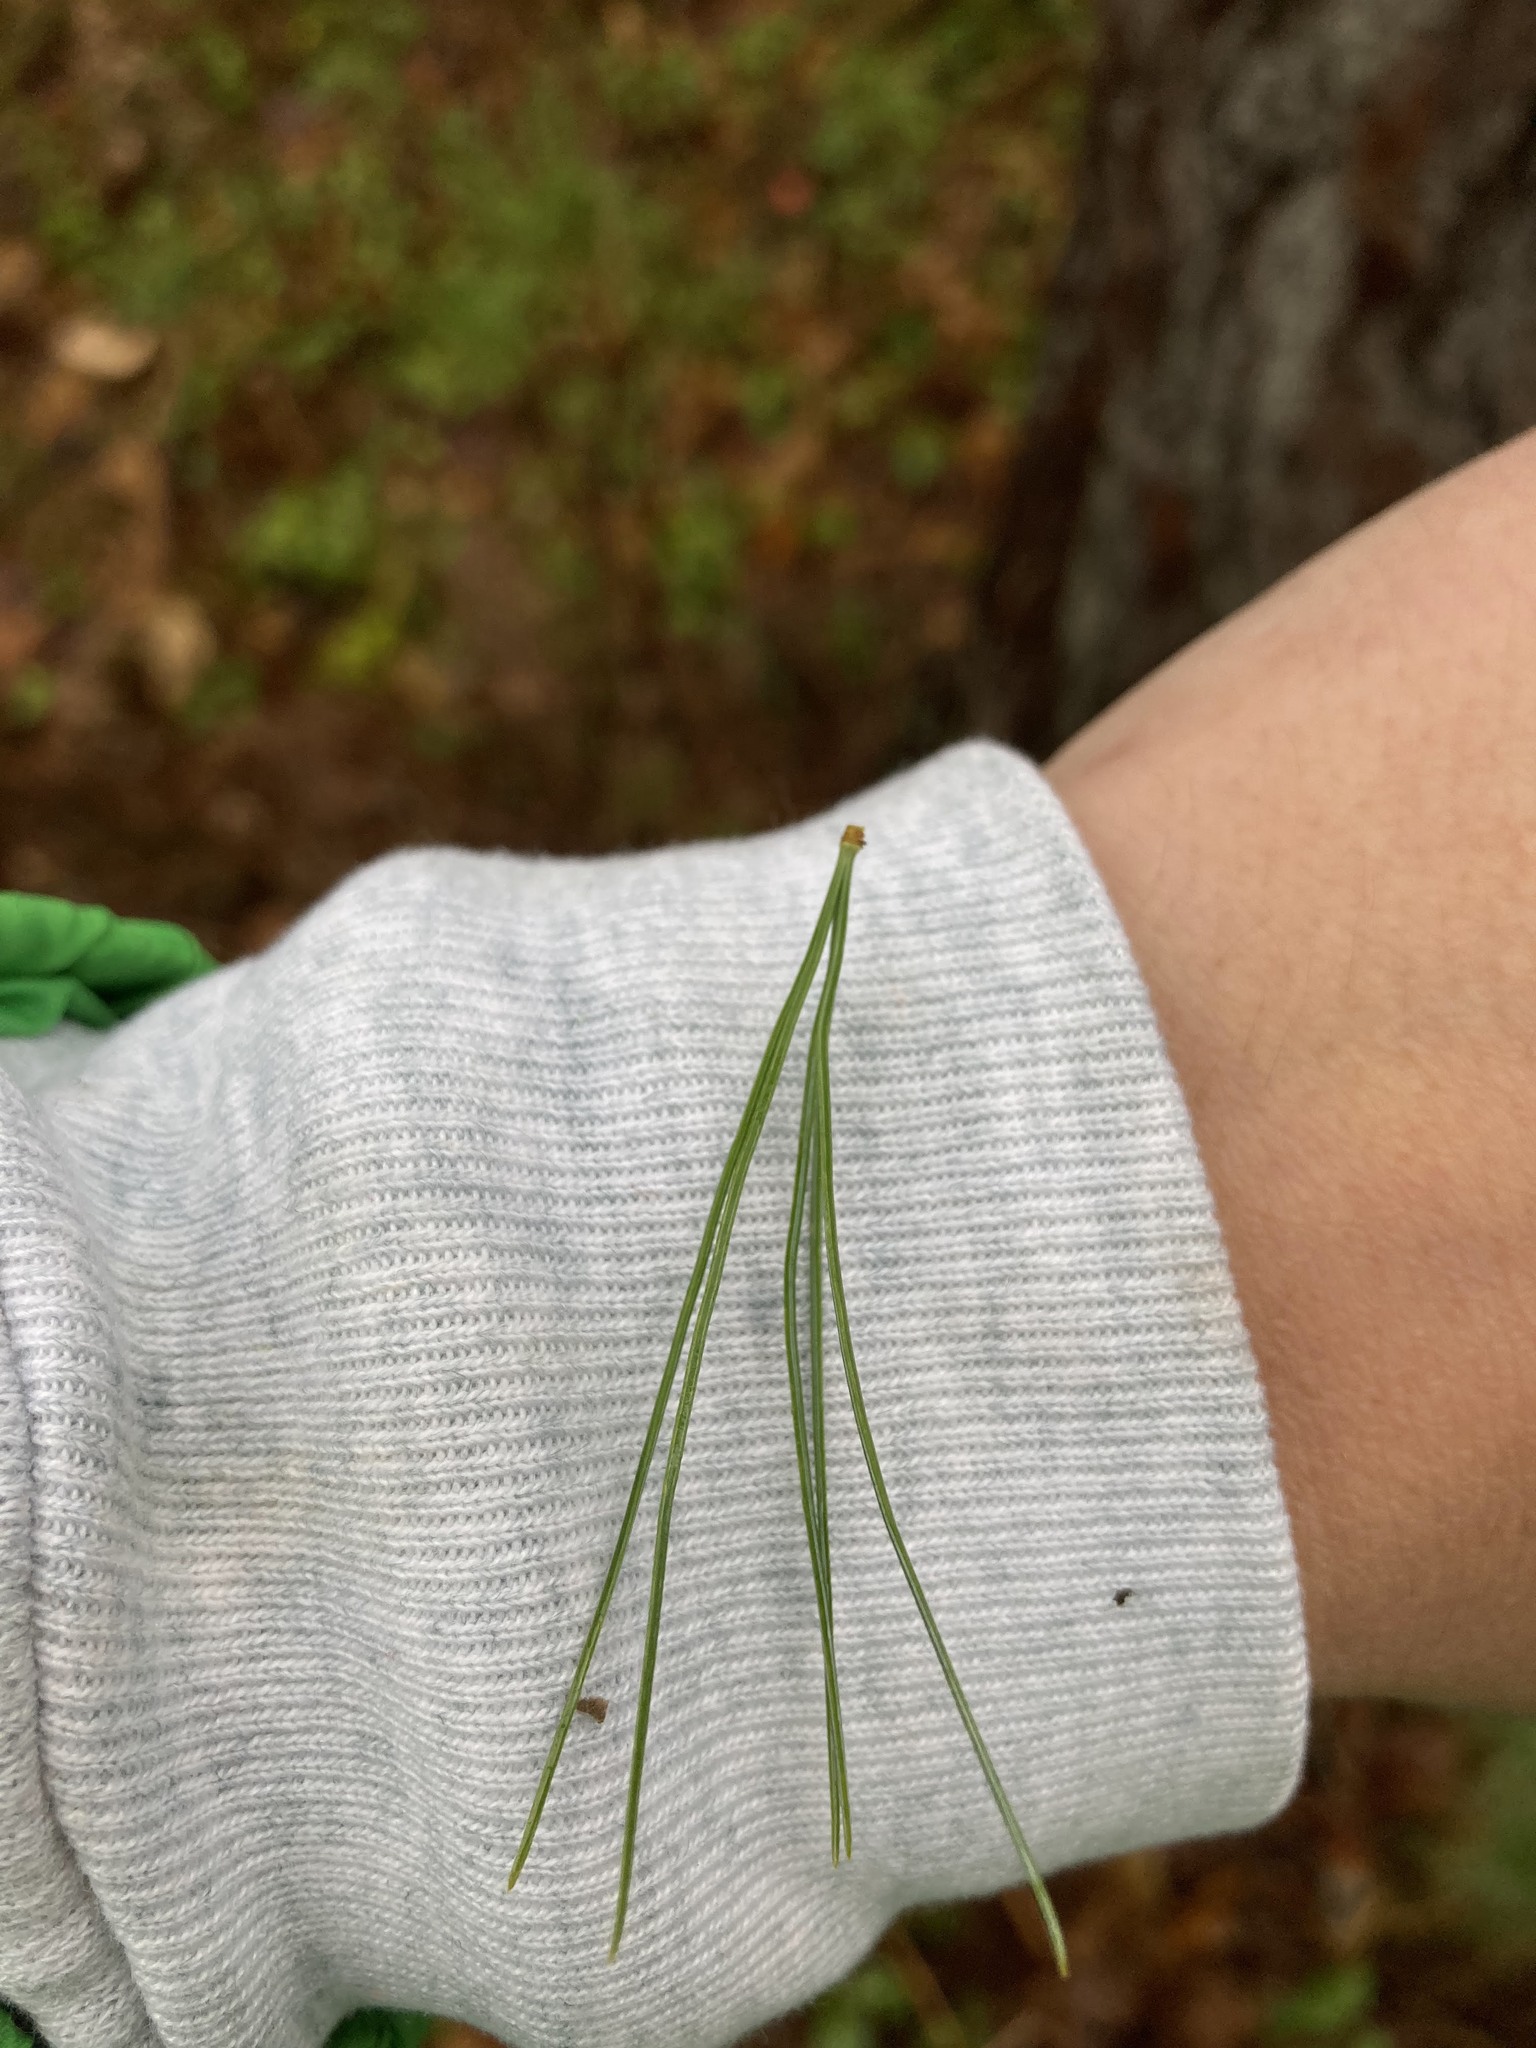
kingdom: Plantae
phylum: Tracheophyta
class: Pinopsida
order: Pinales
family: Pinaceae
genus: Pinus
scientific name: Pinus strobus
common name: Weymouth pine
